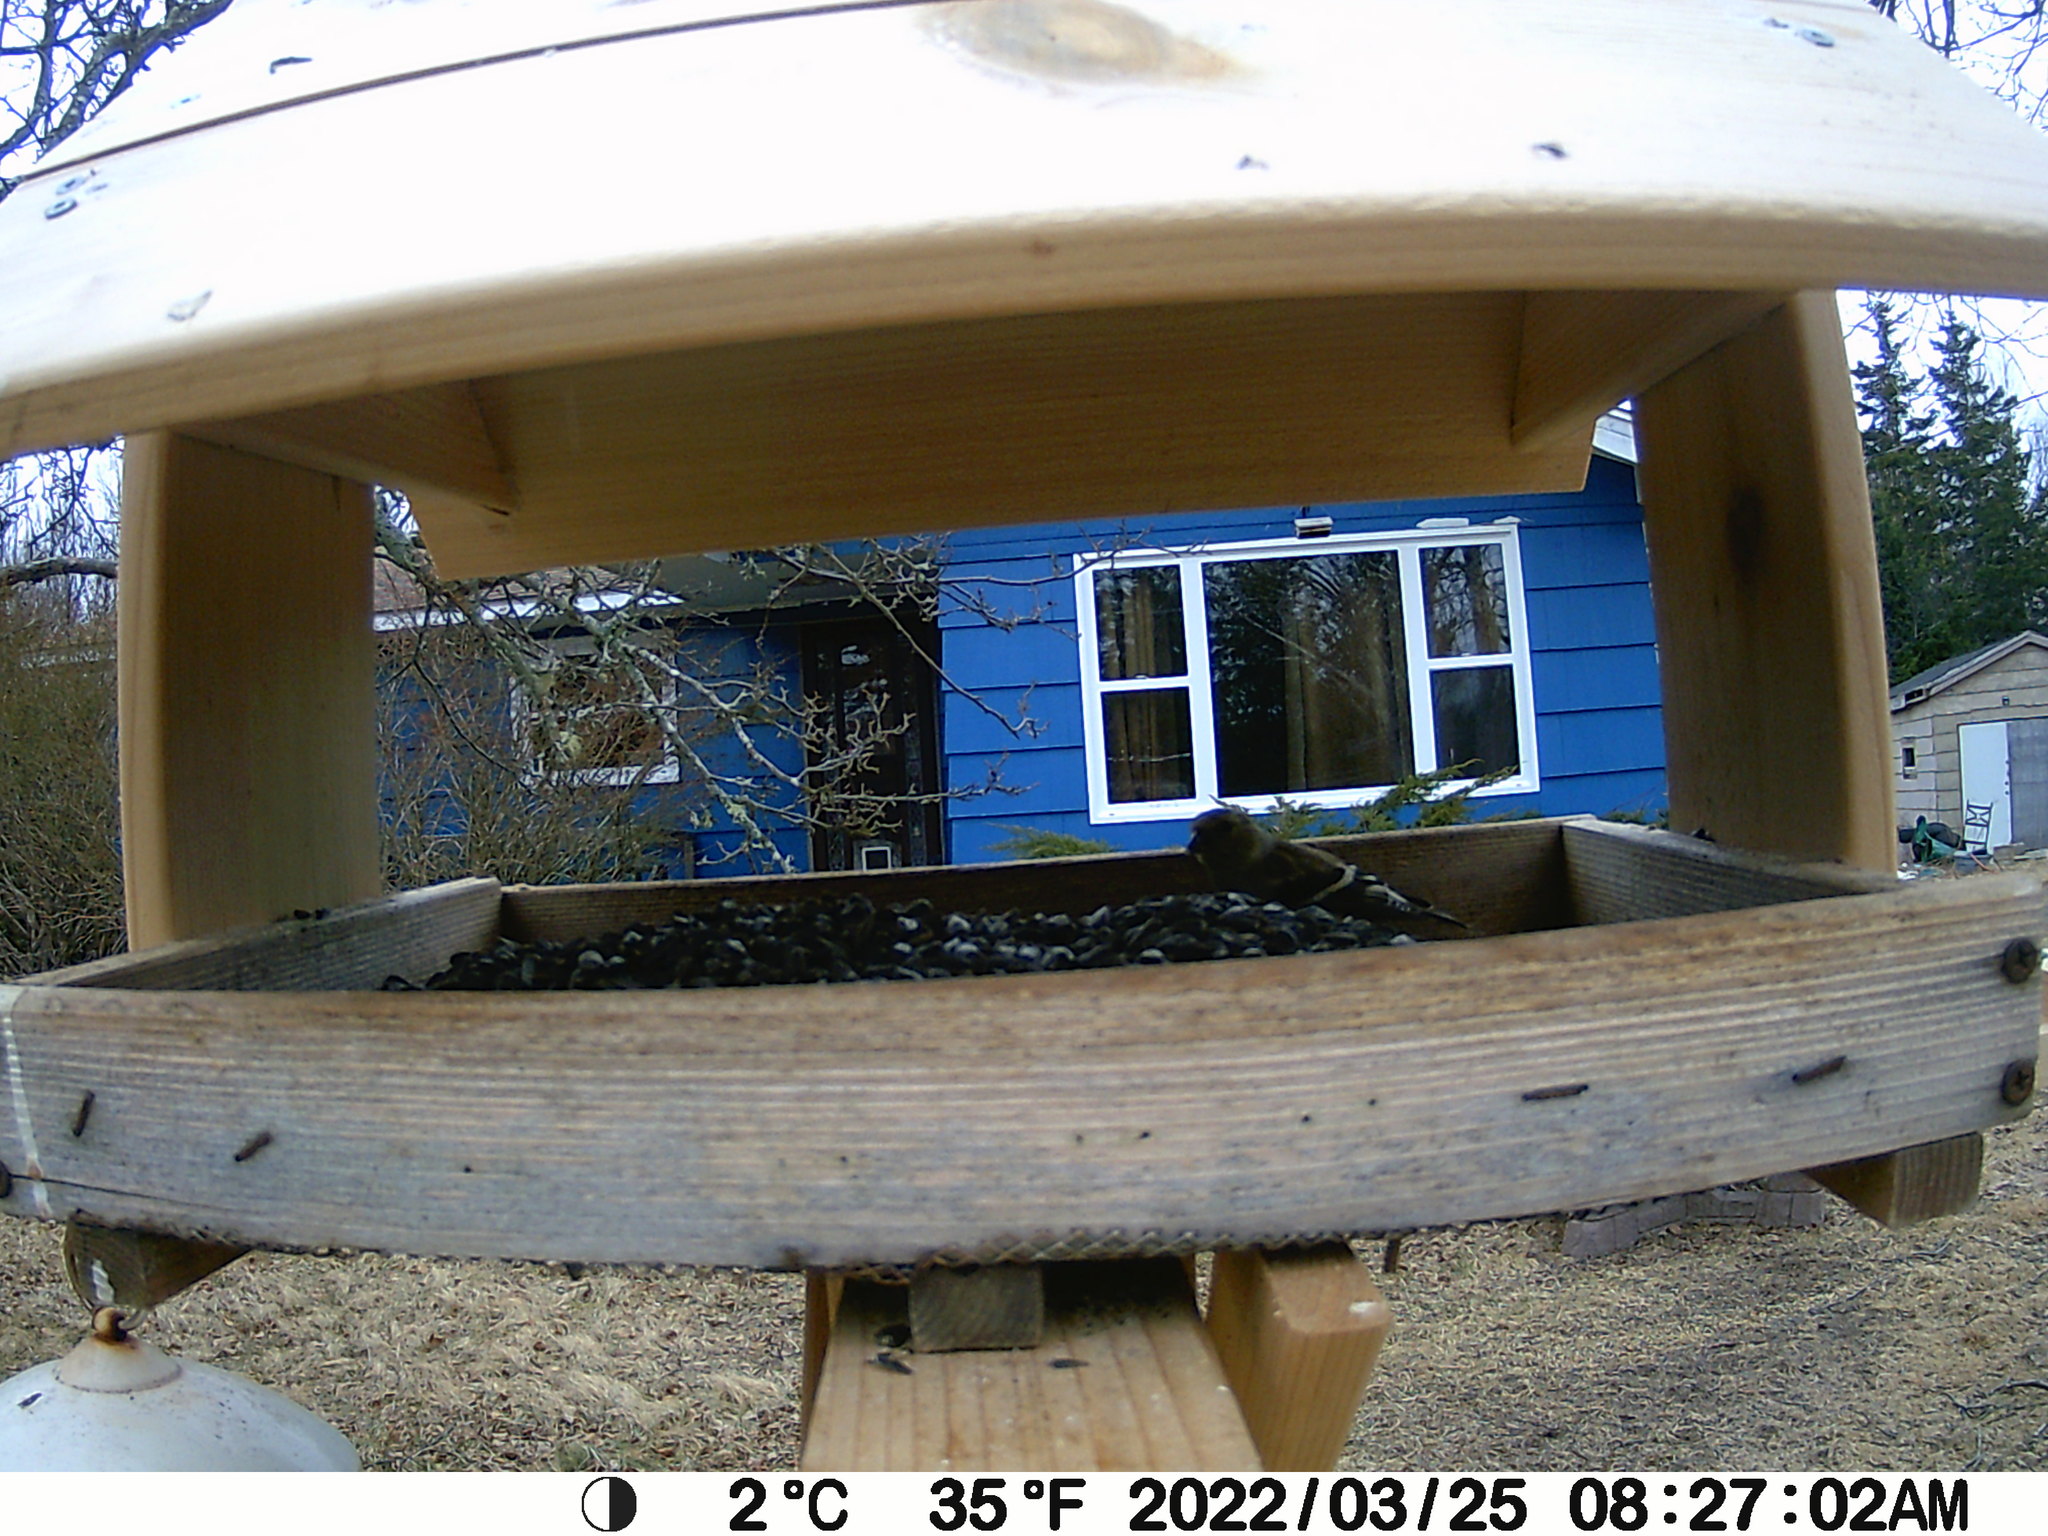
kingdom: Animalia
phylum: Chordata
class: Aves
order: Passeriformes
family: Fringillidae
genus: Spinus
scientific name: Spinus tristis
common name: American goldfinch
